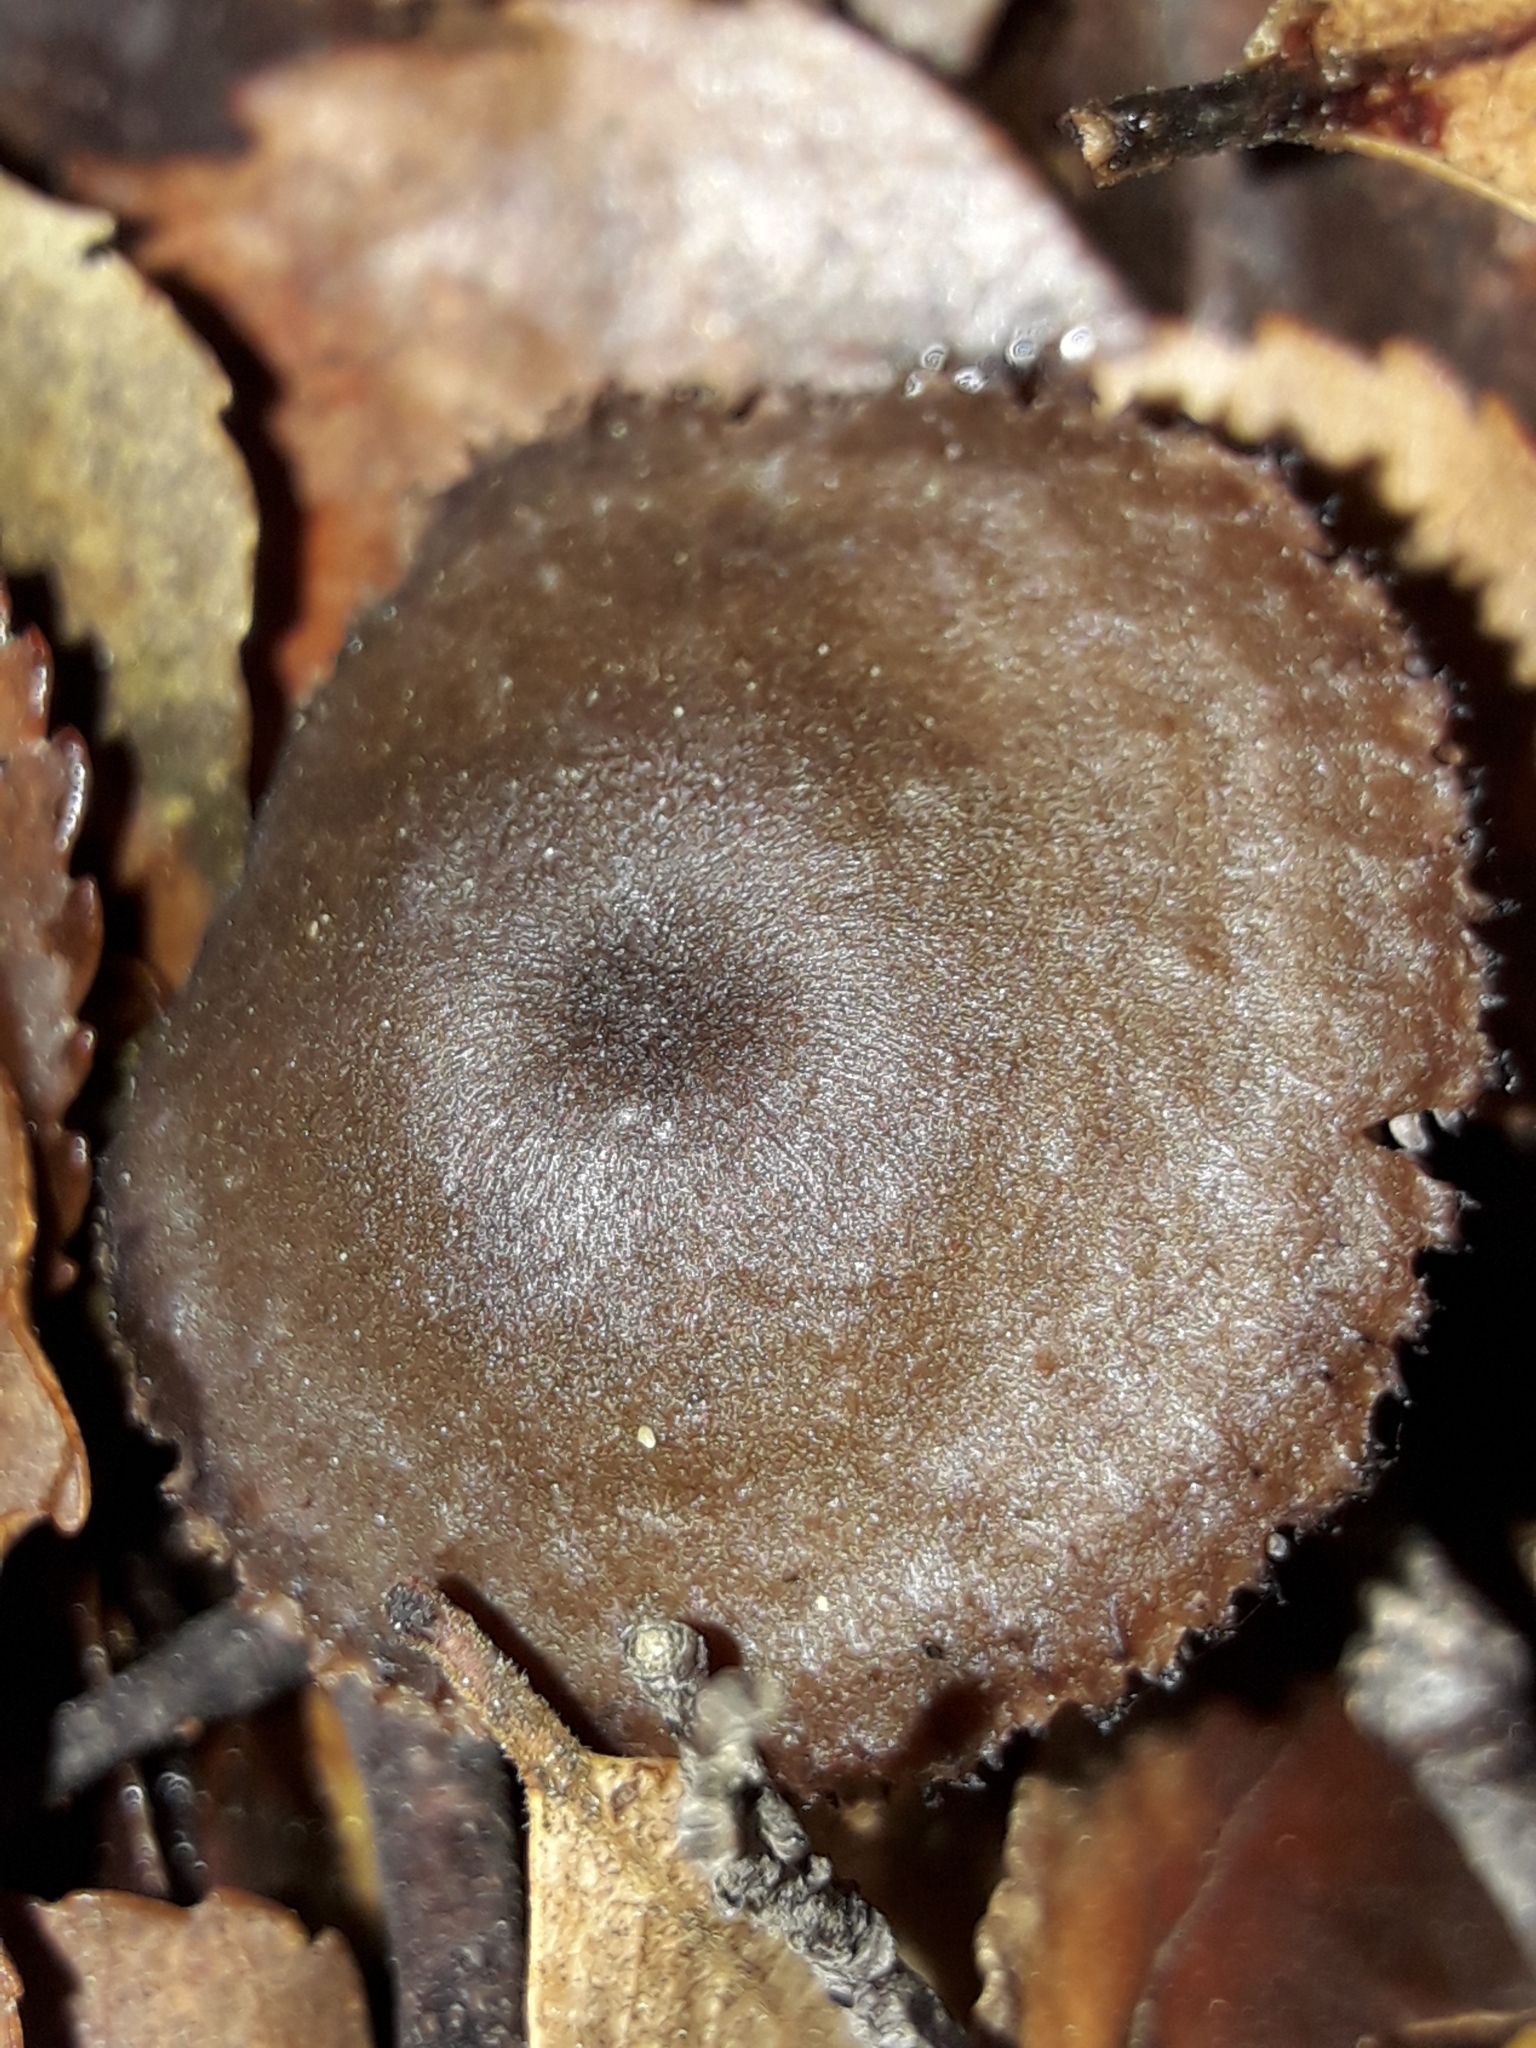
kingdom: Fungi
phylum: Basidiomycota
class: Agaricomycetes
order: Russulales
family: Auriscalpiaceae
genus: Auriscalpium
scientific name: Auriscalpium umbella
